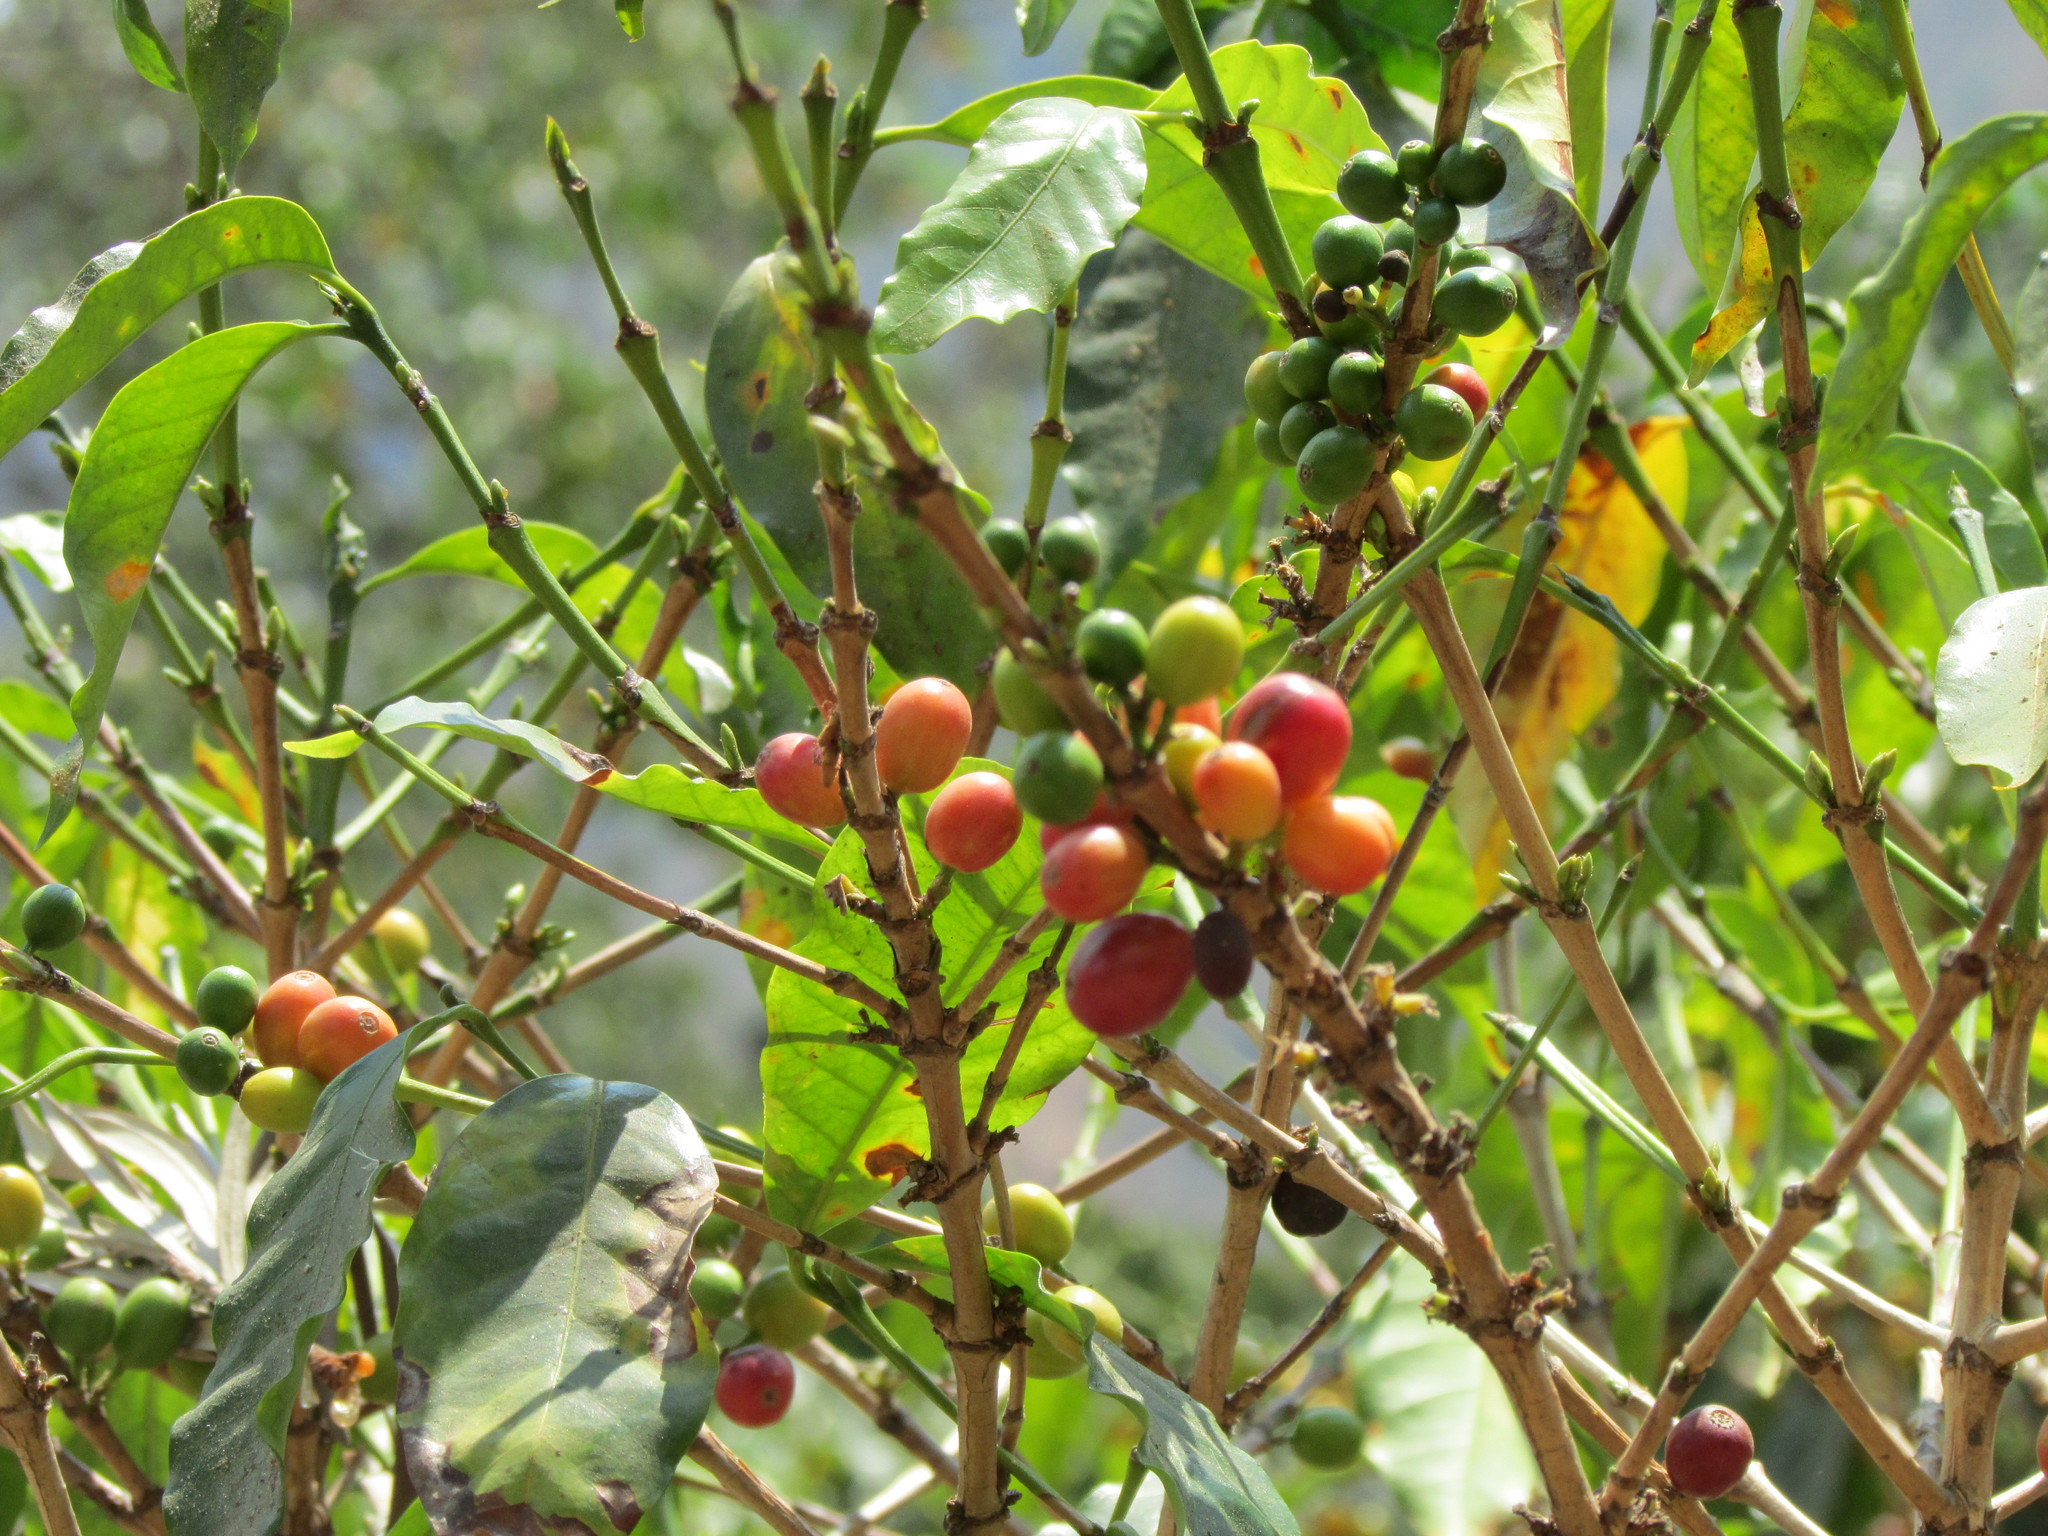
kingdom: Plantae
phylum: Tracheophyta
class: Magnoliopsida
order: Gentianales
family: Rubiaceae
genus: Coffea
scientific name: Coffea arabica
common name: Coffee
